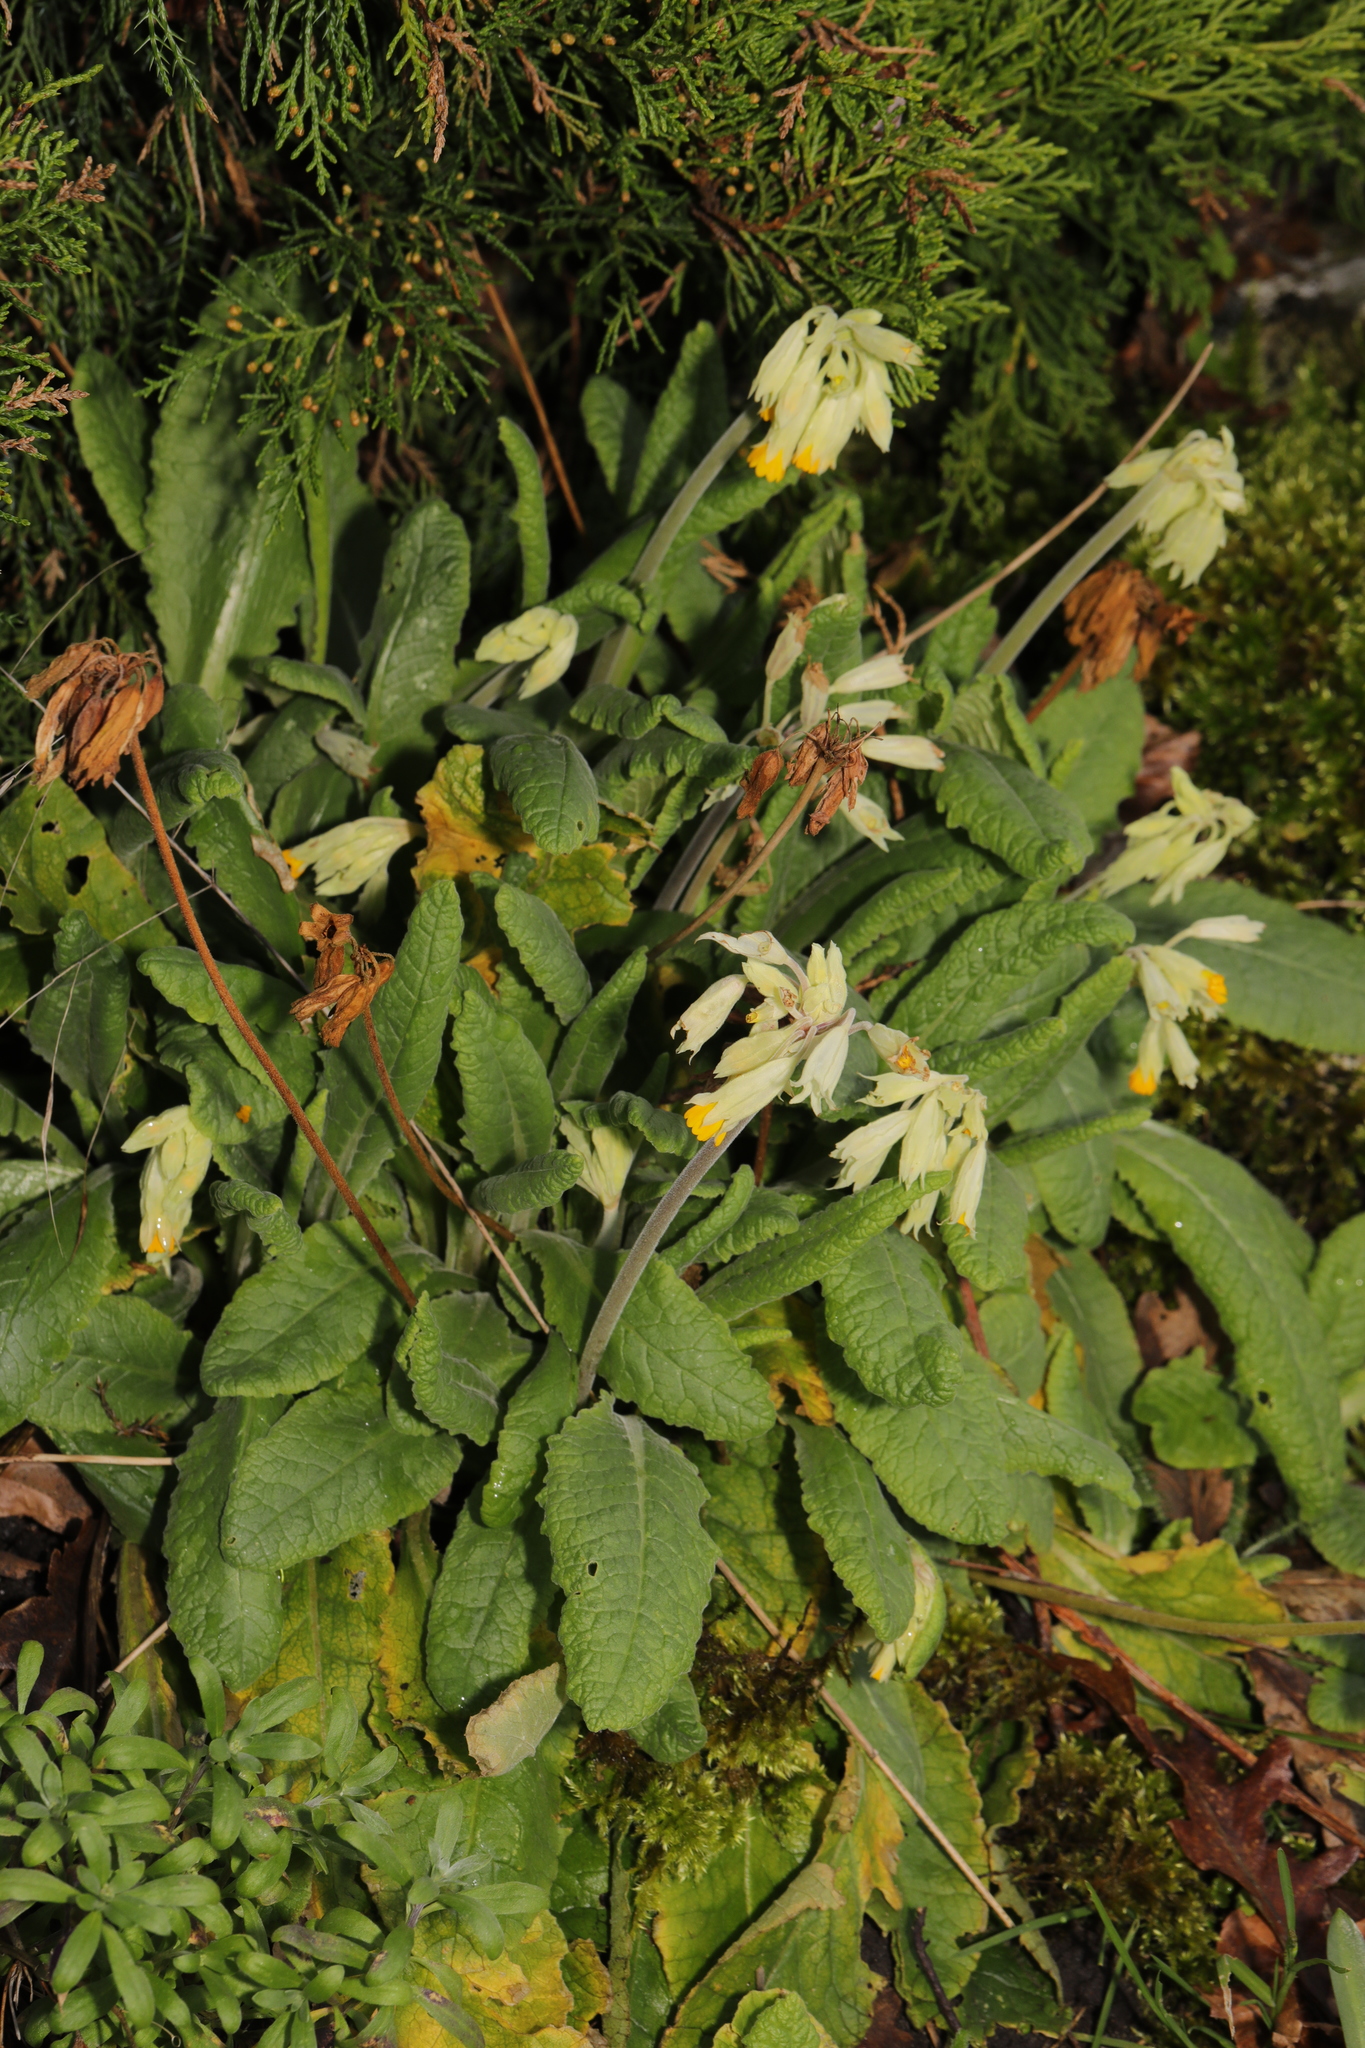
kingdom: Plantae
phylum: Tracheophyta
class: Magnoliopsida
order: Ericales
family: Primulaceae
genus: Primula
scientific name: Primula veris
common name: Cowslip
